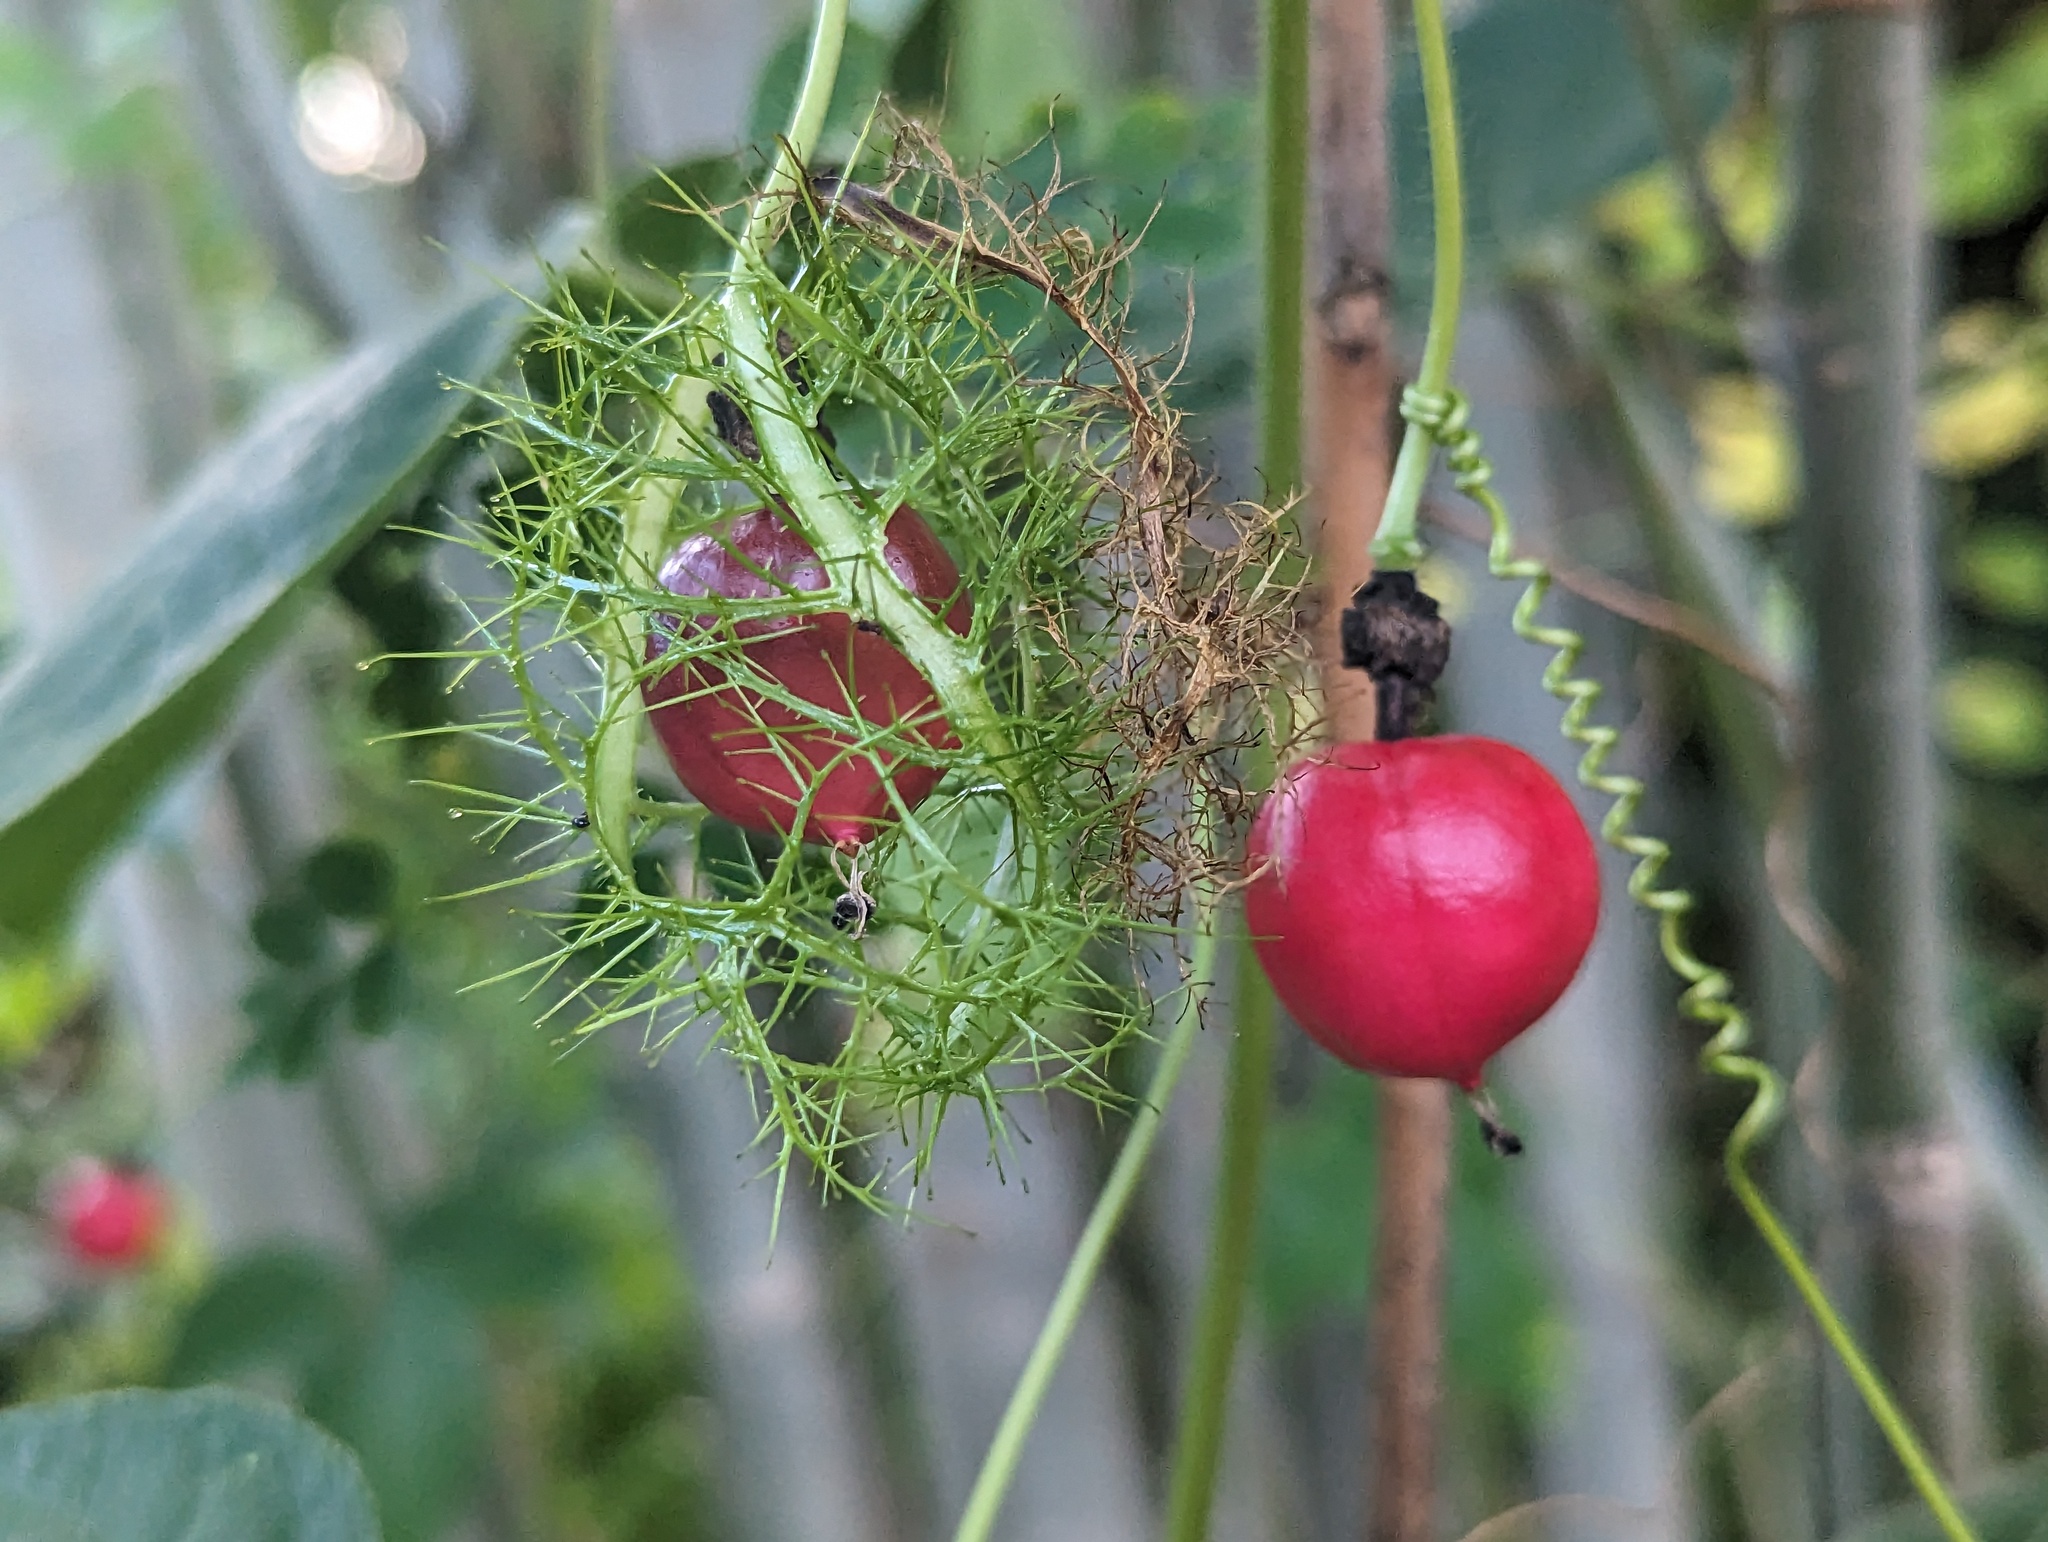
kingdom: Plantae
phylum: Tracheophyta
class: Magnoliopsida
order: Malpighiales
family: Passifloraceae
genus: Passiflora
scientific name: Passiflora
